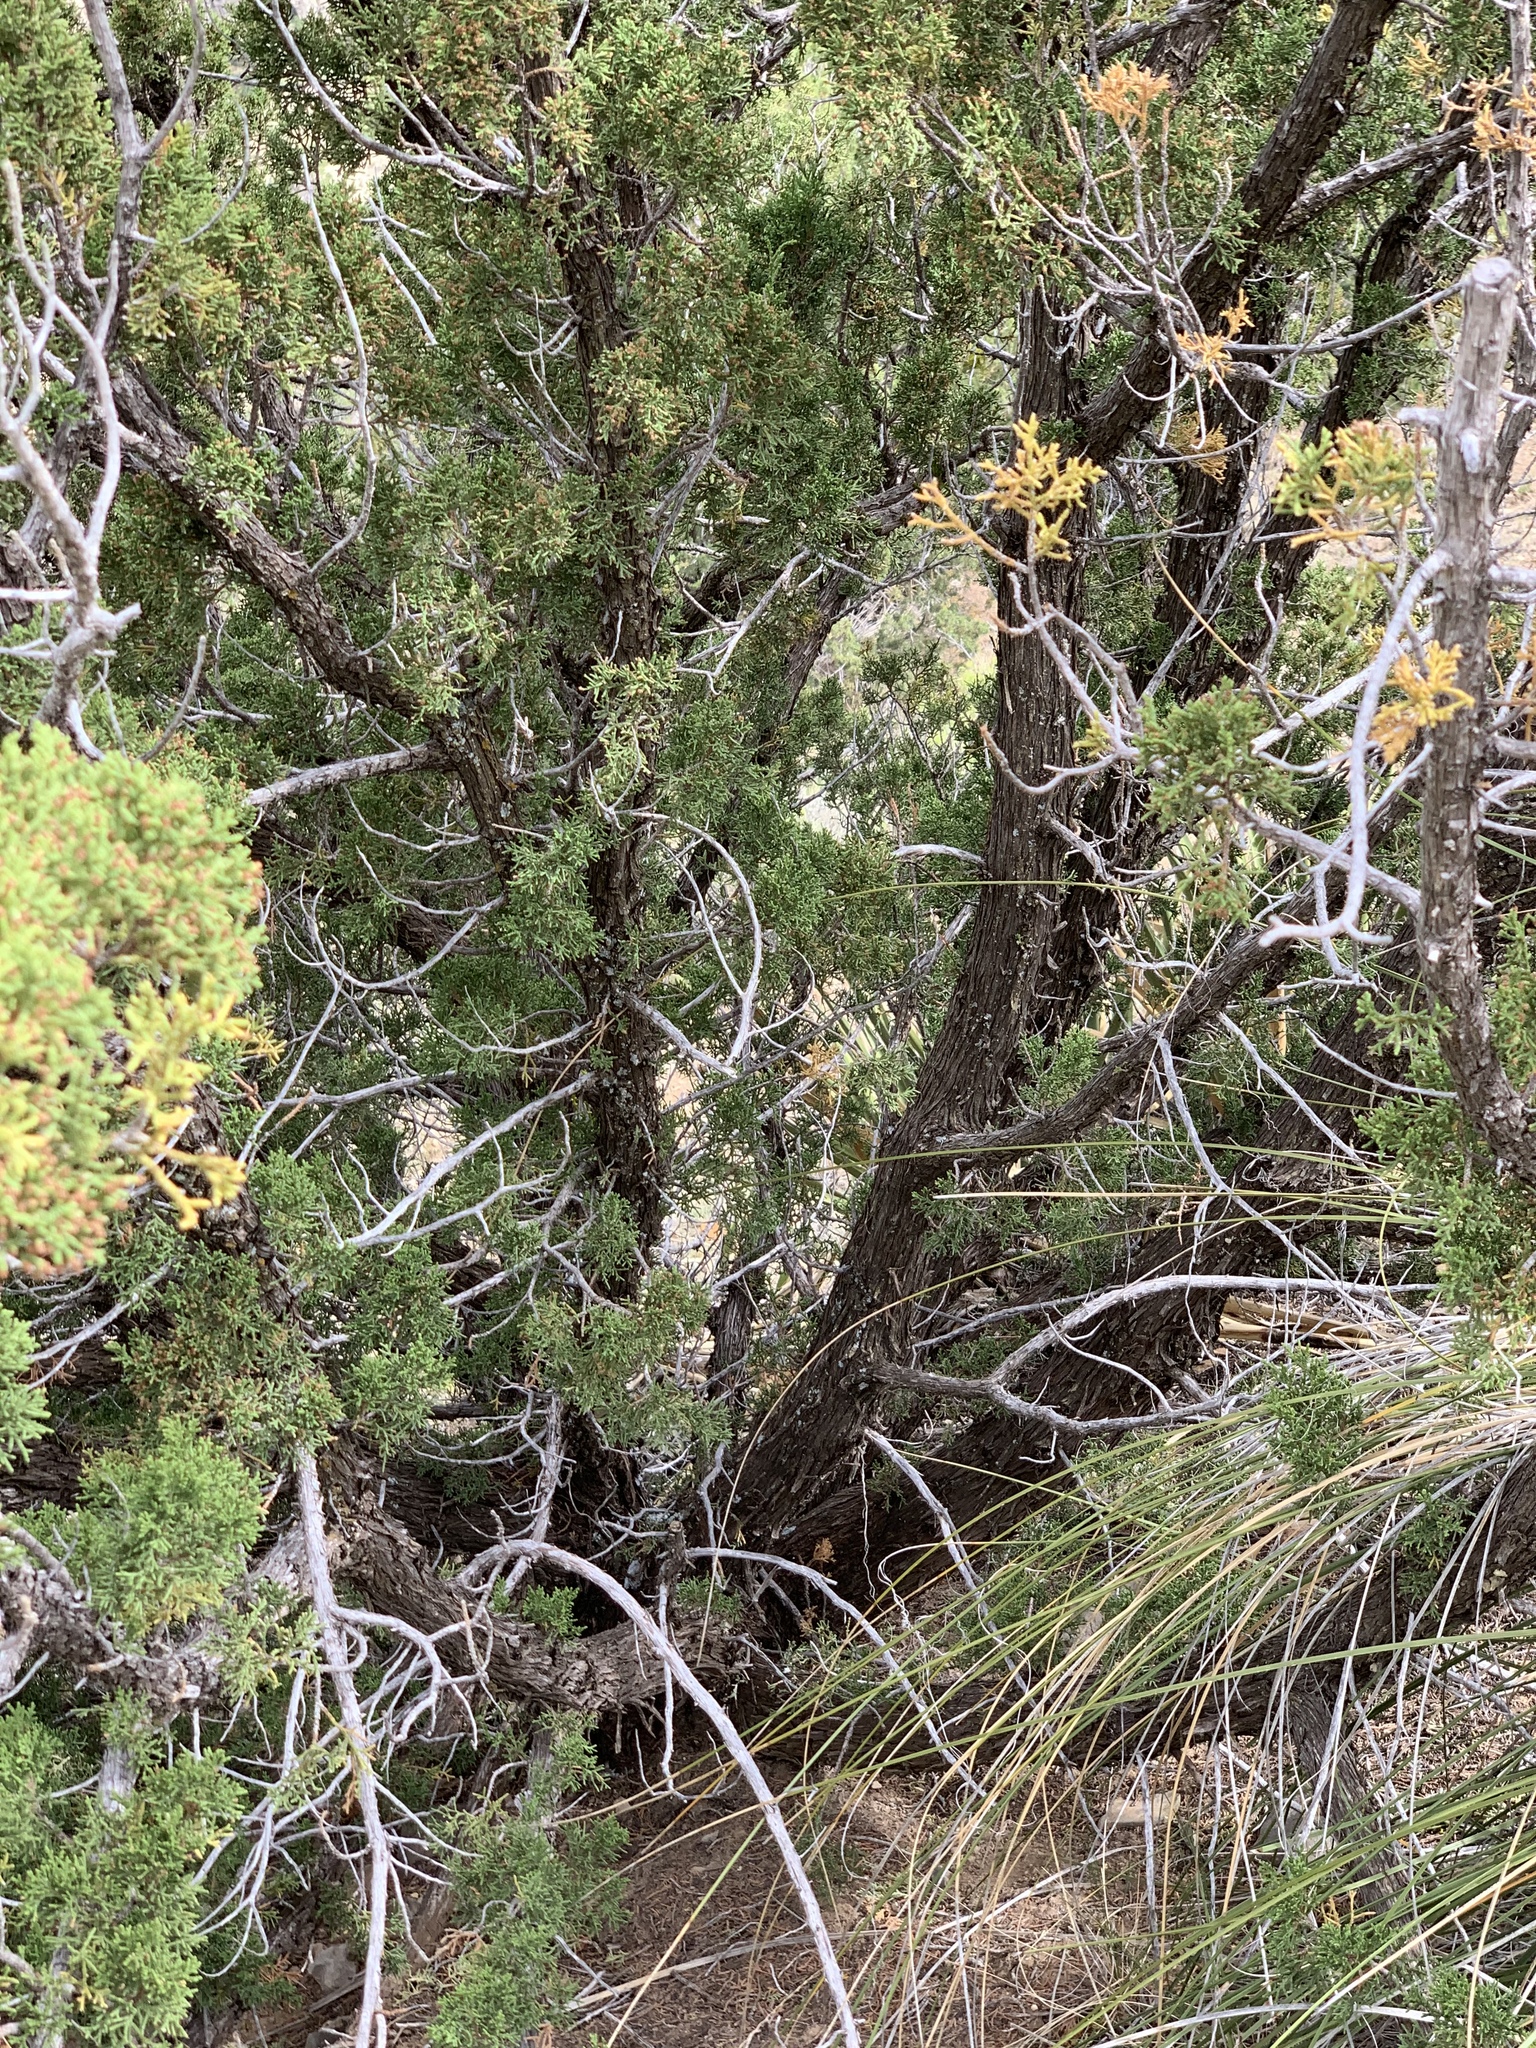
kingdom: Plantae
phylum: Tracheophyta
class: Pinopsida
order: Pinales
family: Cupressaceae
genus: Juniperus
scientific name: Juniperus monosperma
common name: One-seed juniper
